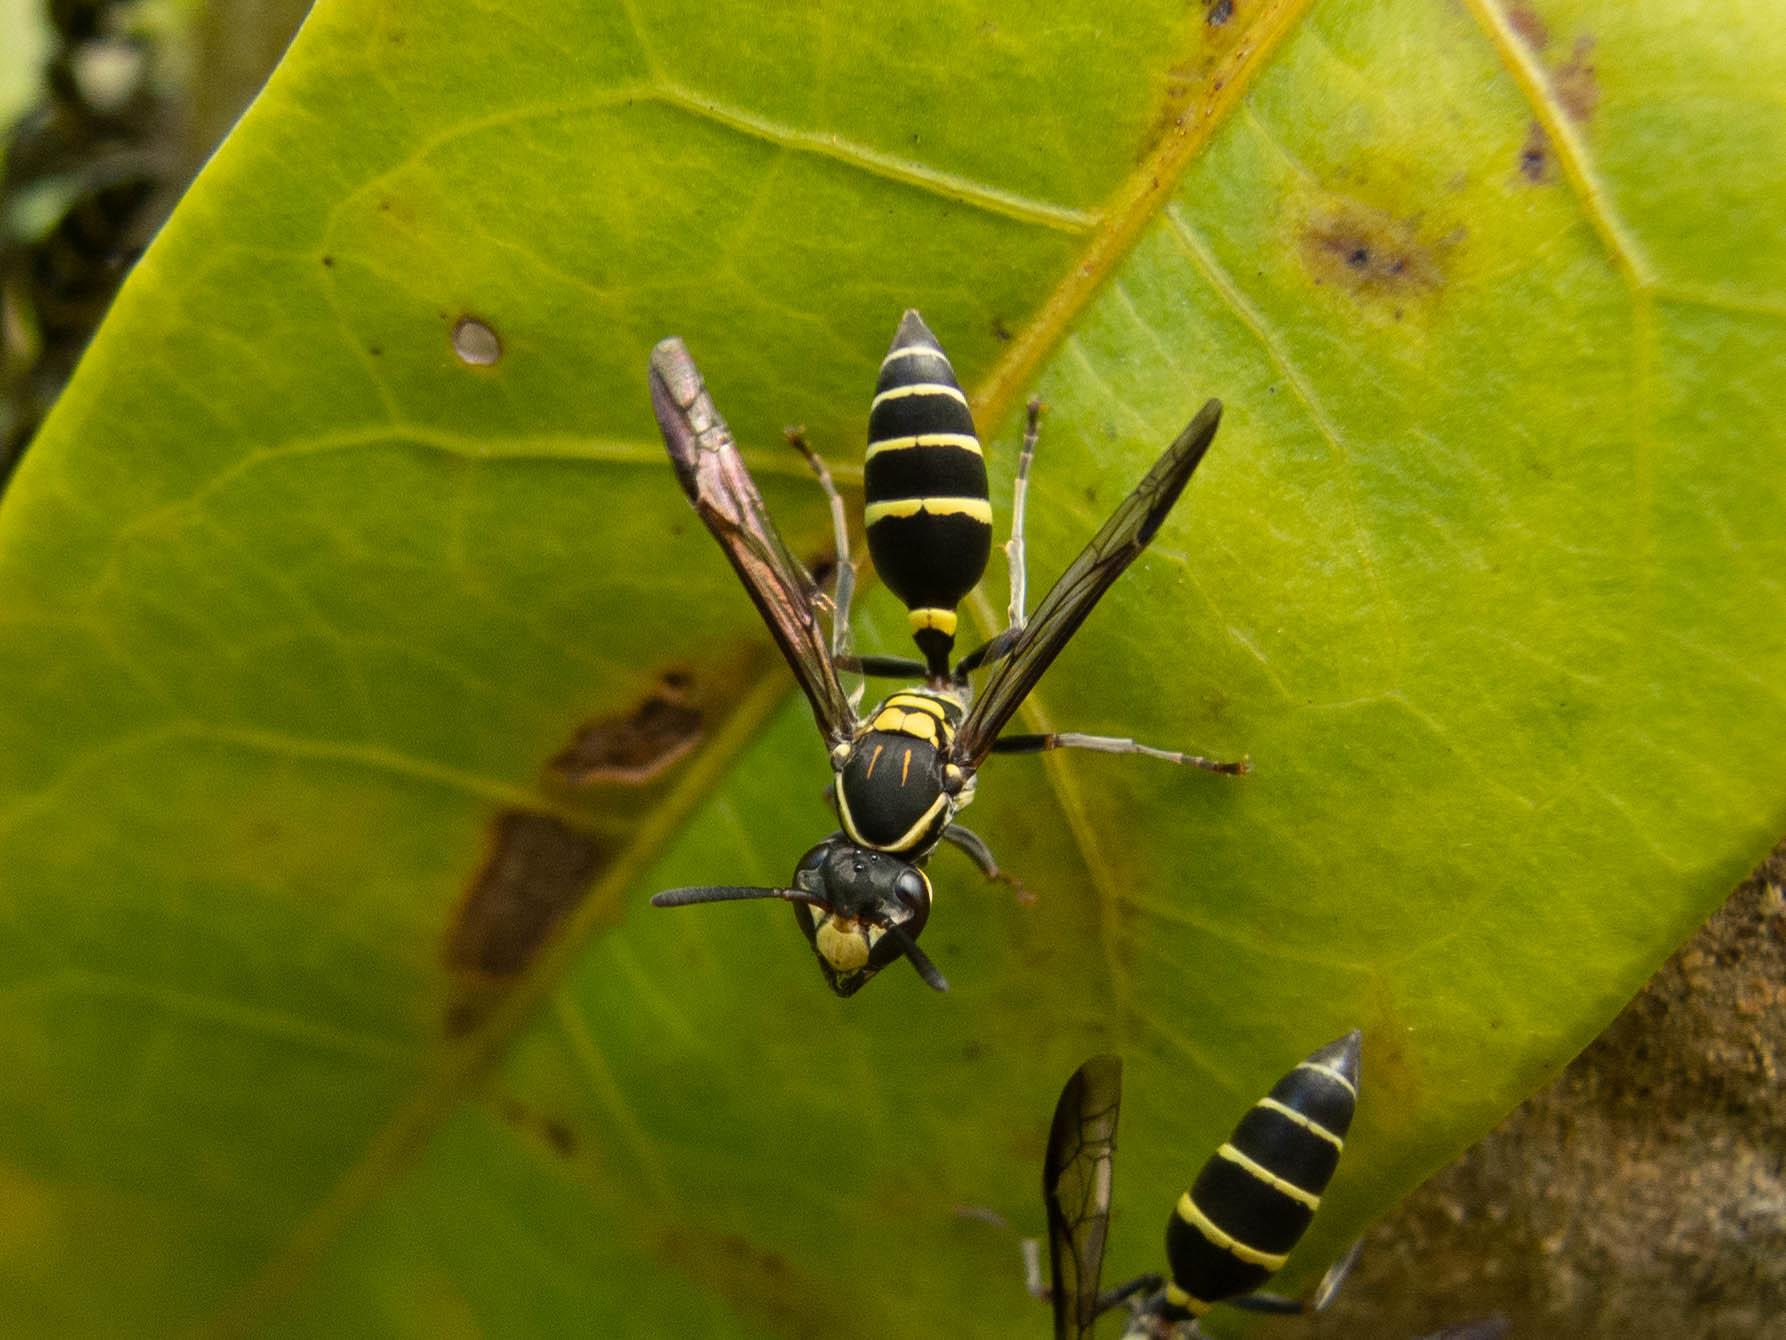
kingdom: Animalia
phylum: Arthropoda
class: Insecta
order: Hymenoptera
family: Eumenidae
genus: Polybia
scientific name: Polybia occidentalis
